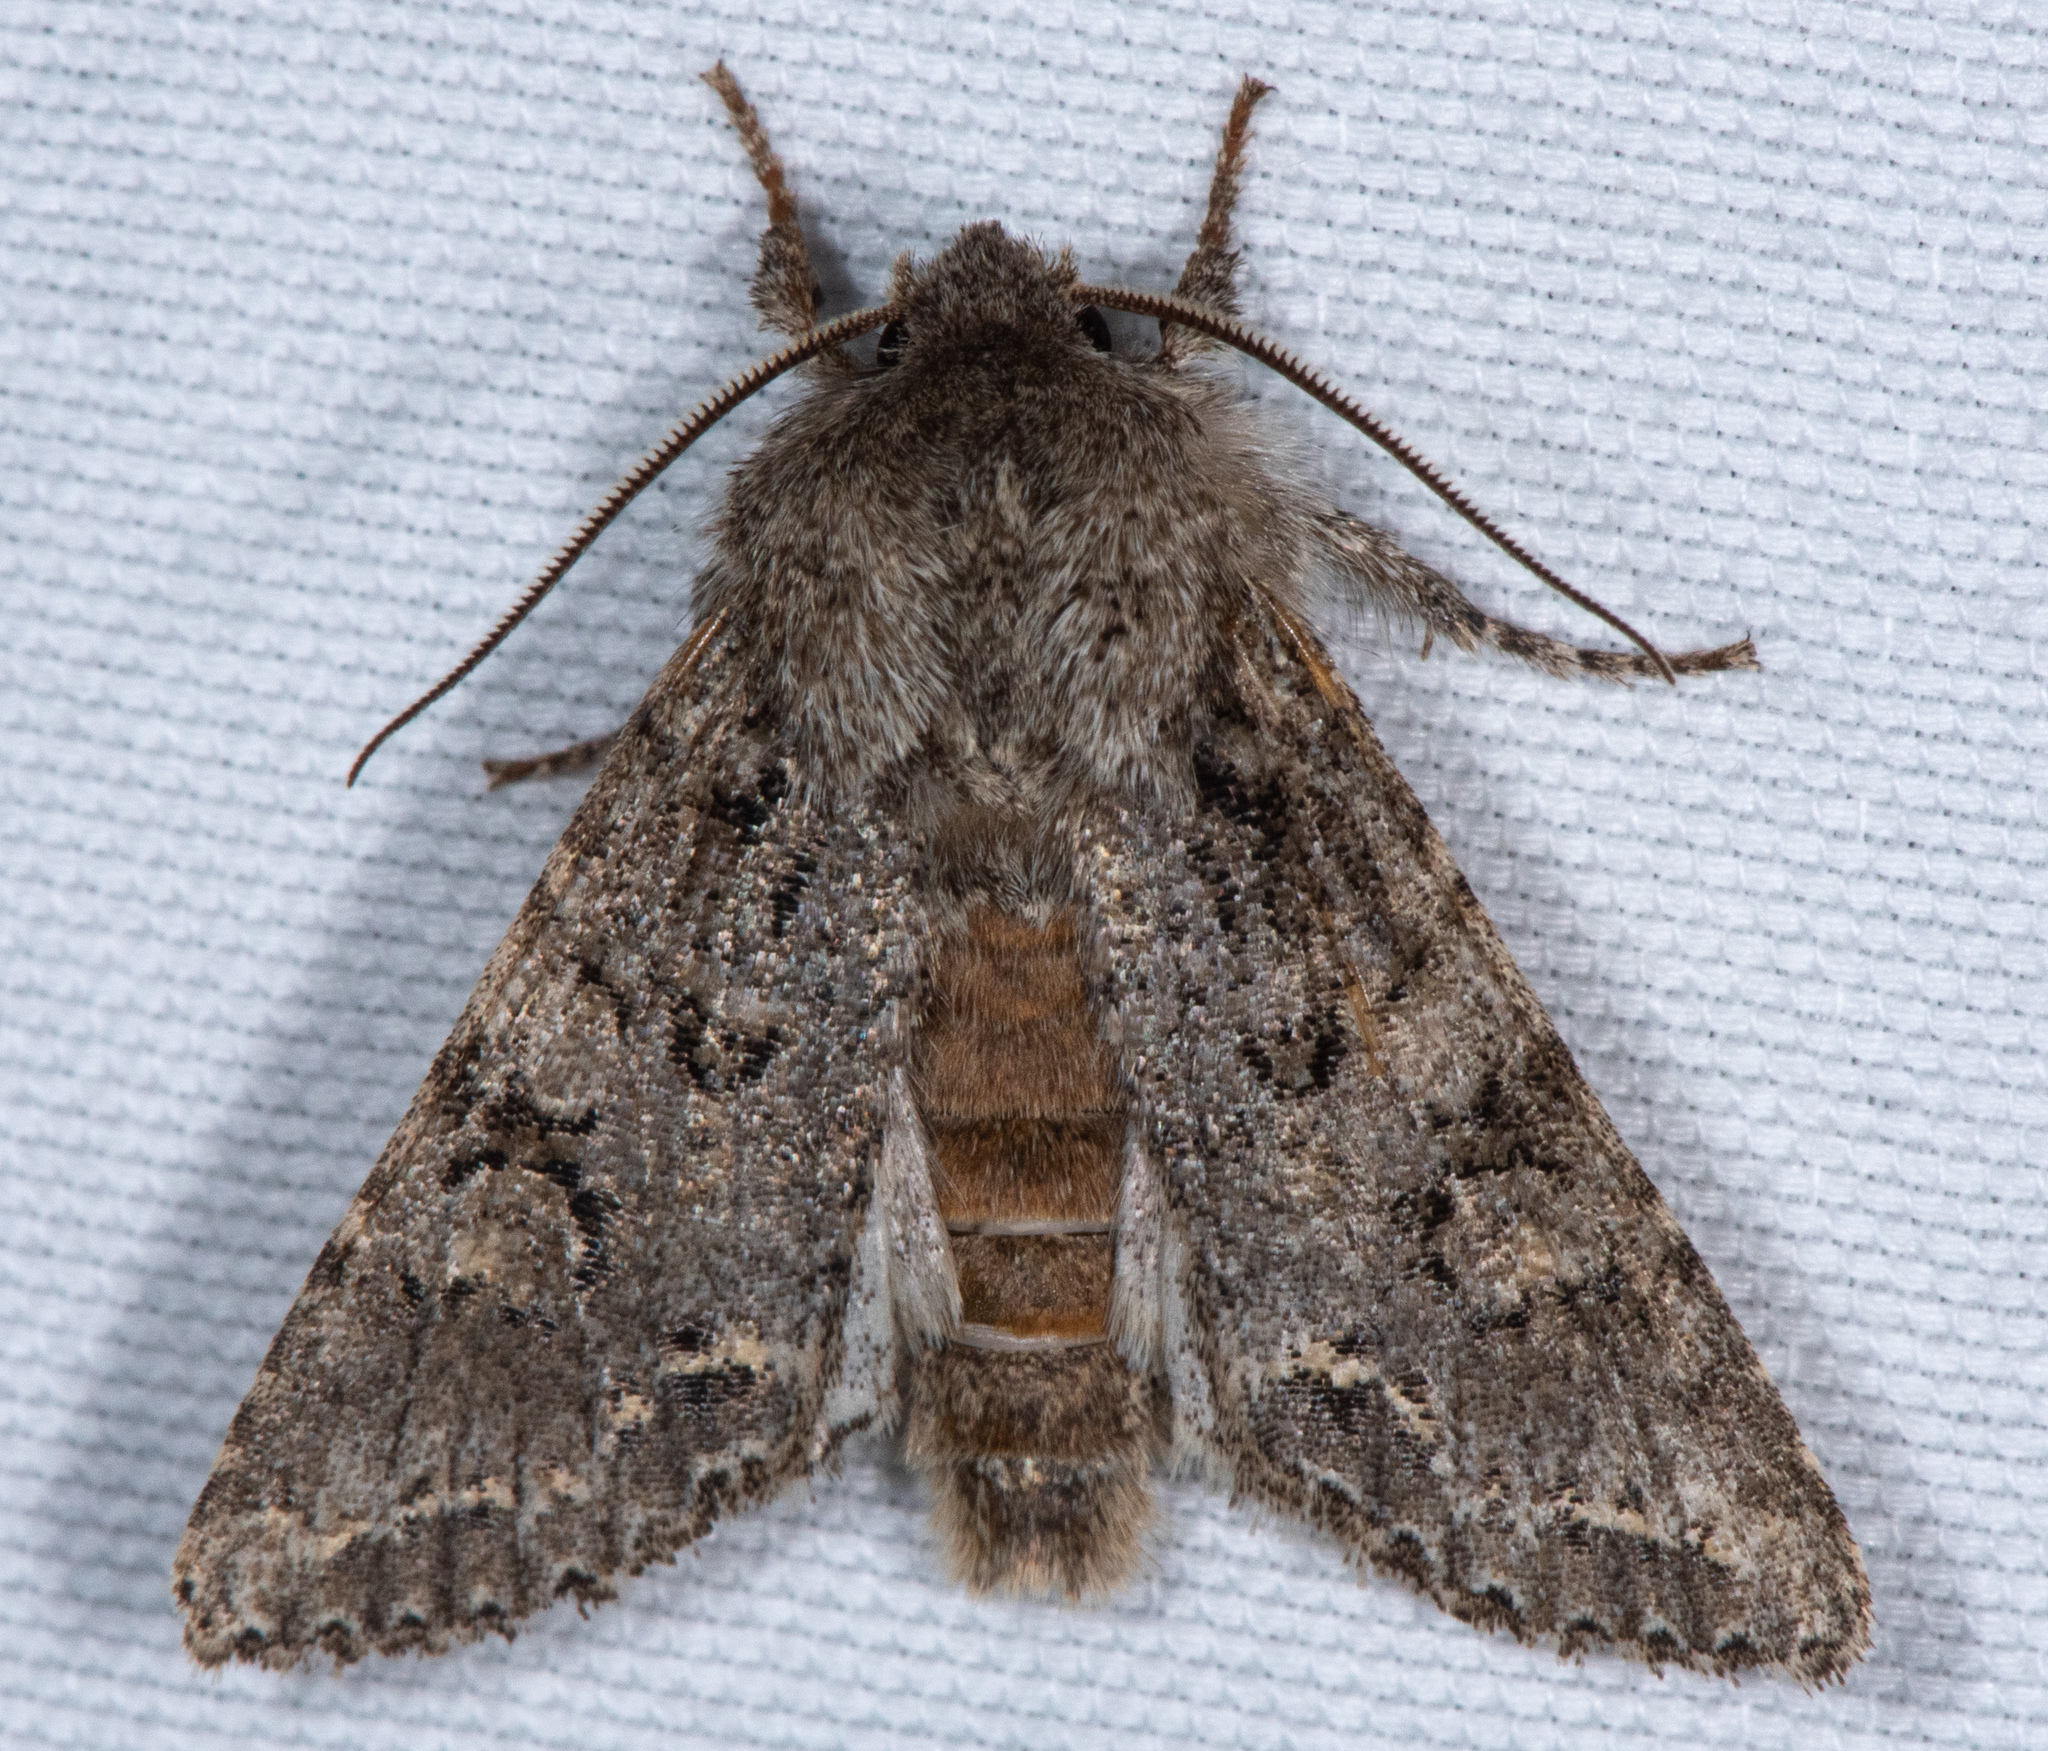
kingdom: Animalia
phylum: Arthropoda
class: Insecta
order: Lepidoptera
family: Noctuidae
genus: Egira
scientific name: Egira cognata
